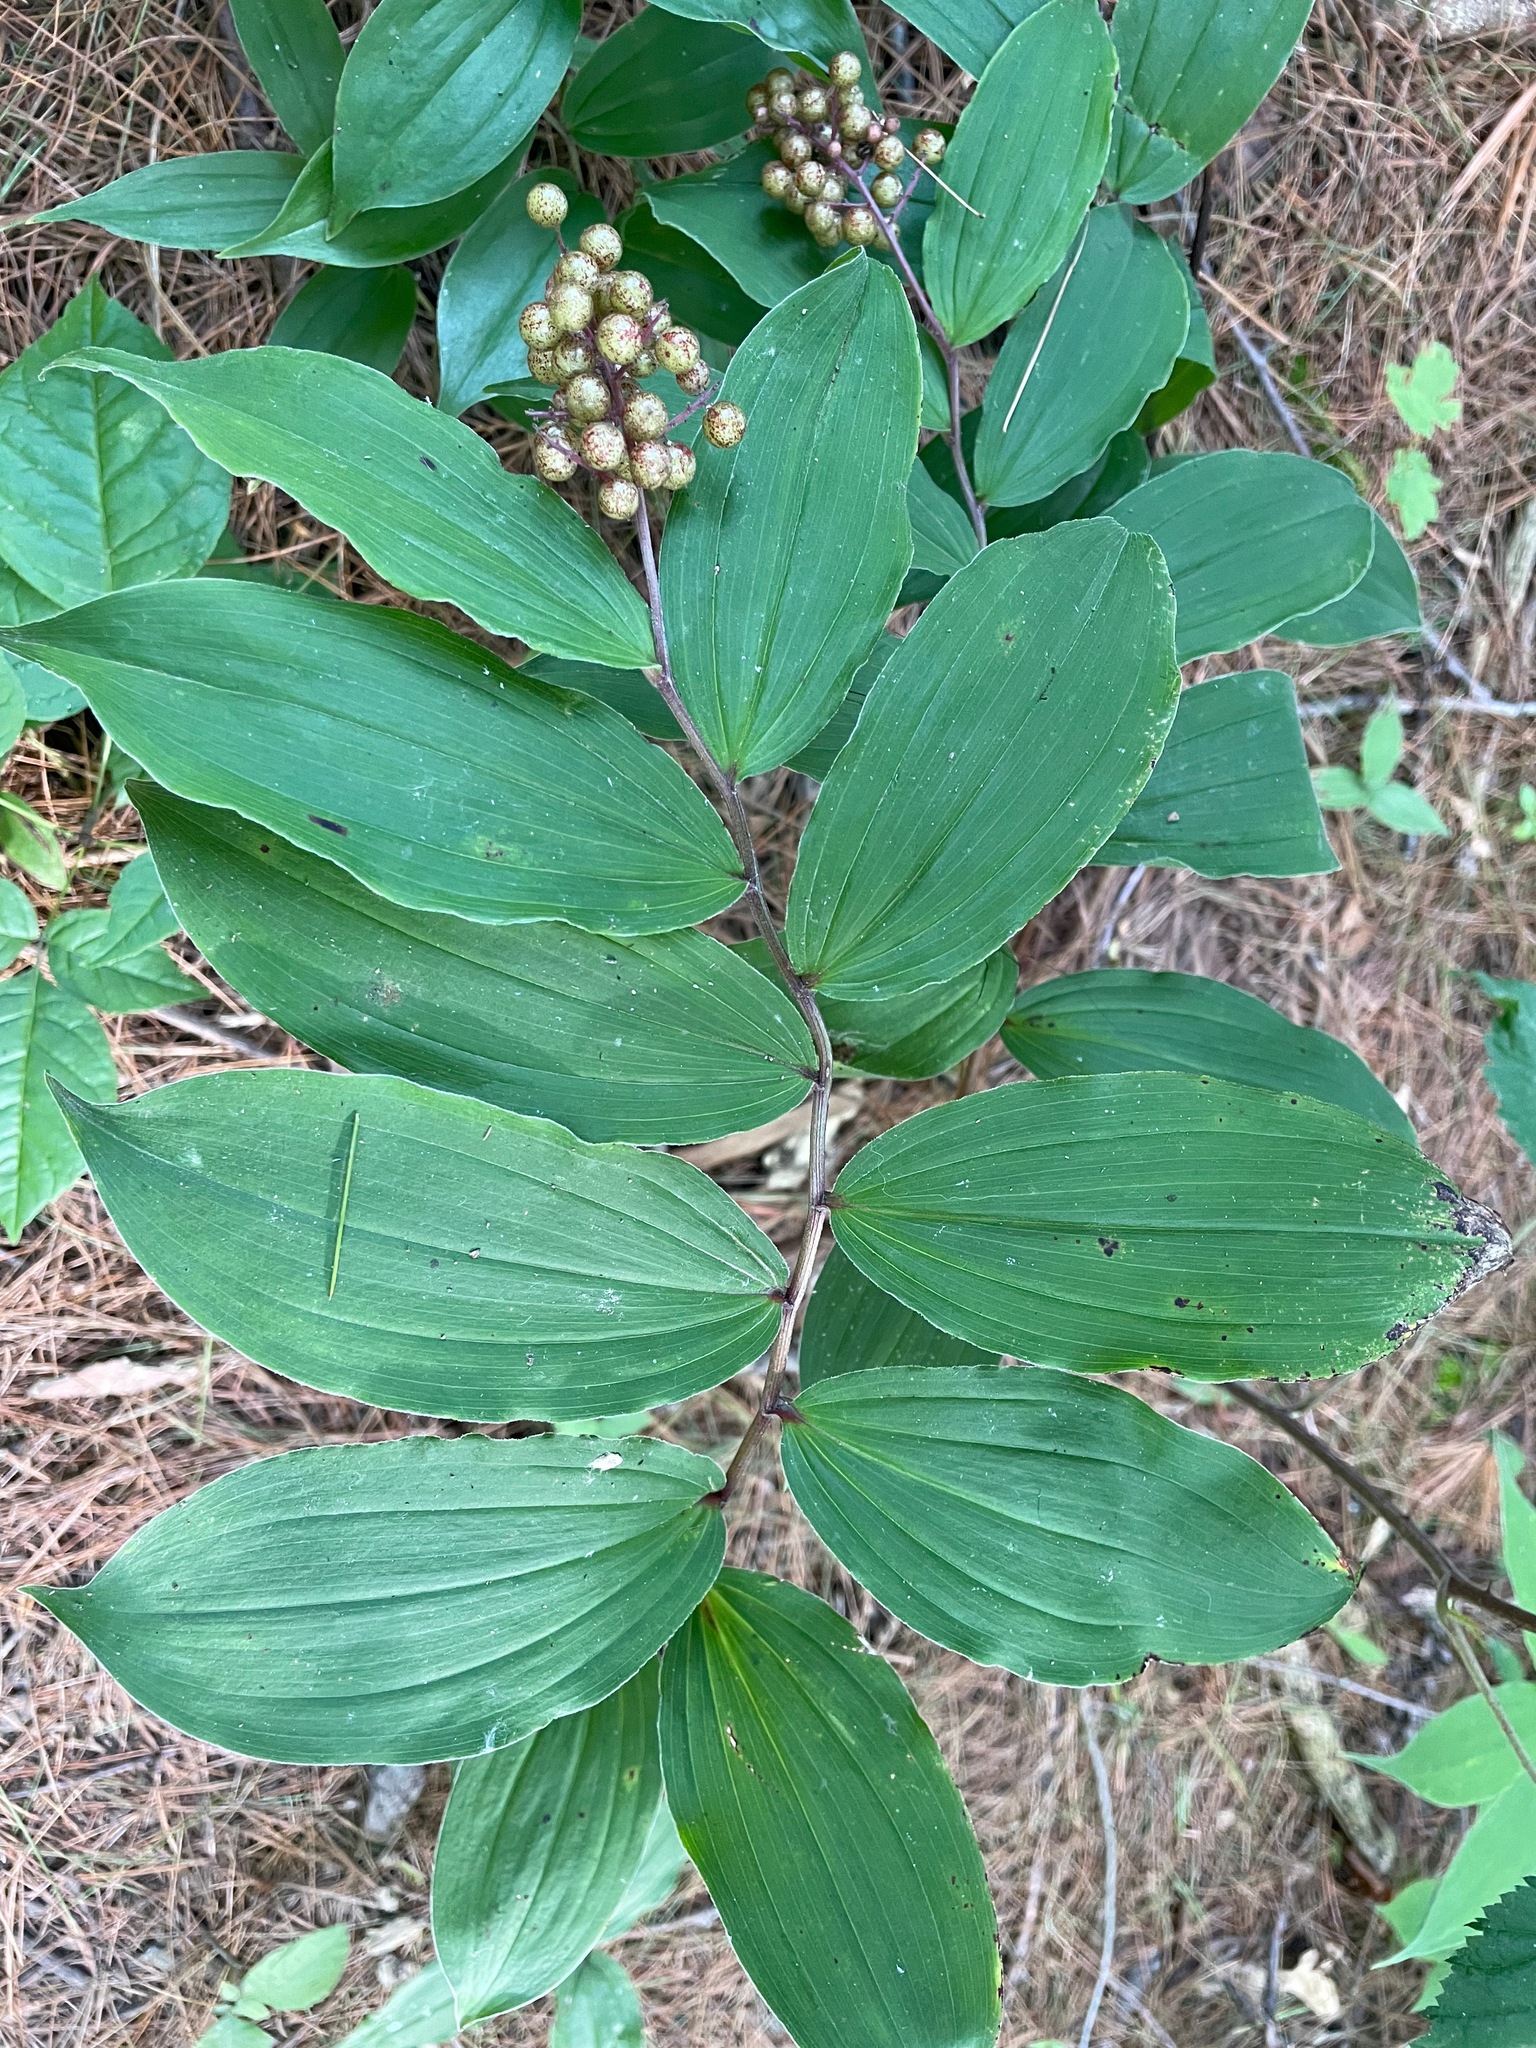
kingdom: Plantae
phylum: Tracheophyta
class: Liliopsida
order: Asparagales
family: Asparagaceae
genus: Maianthemum
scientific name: Maianthemum racemosum
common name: False spikenard
